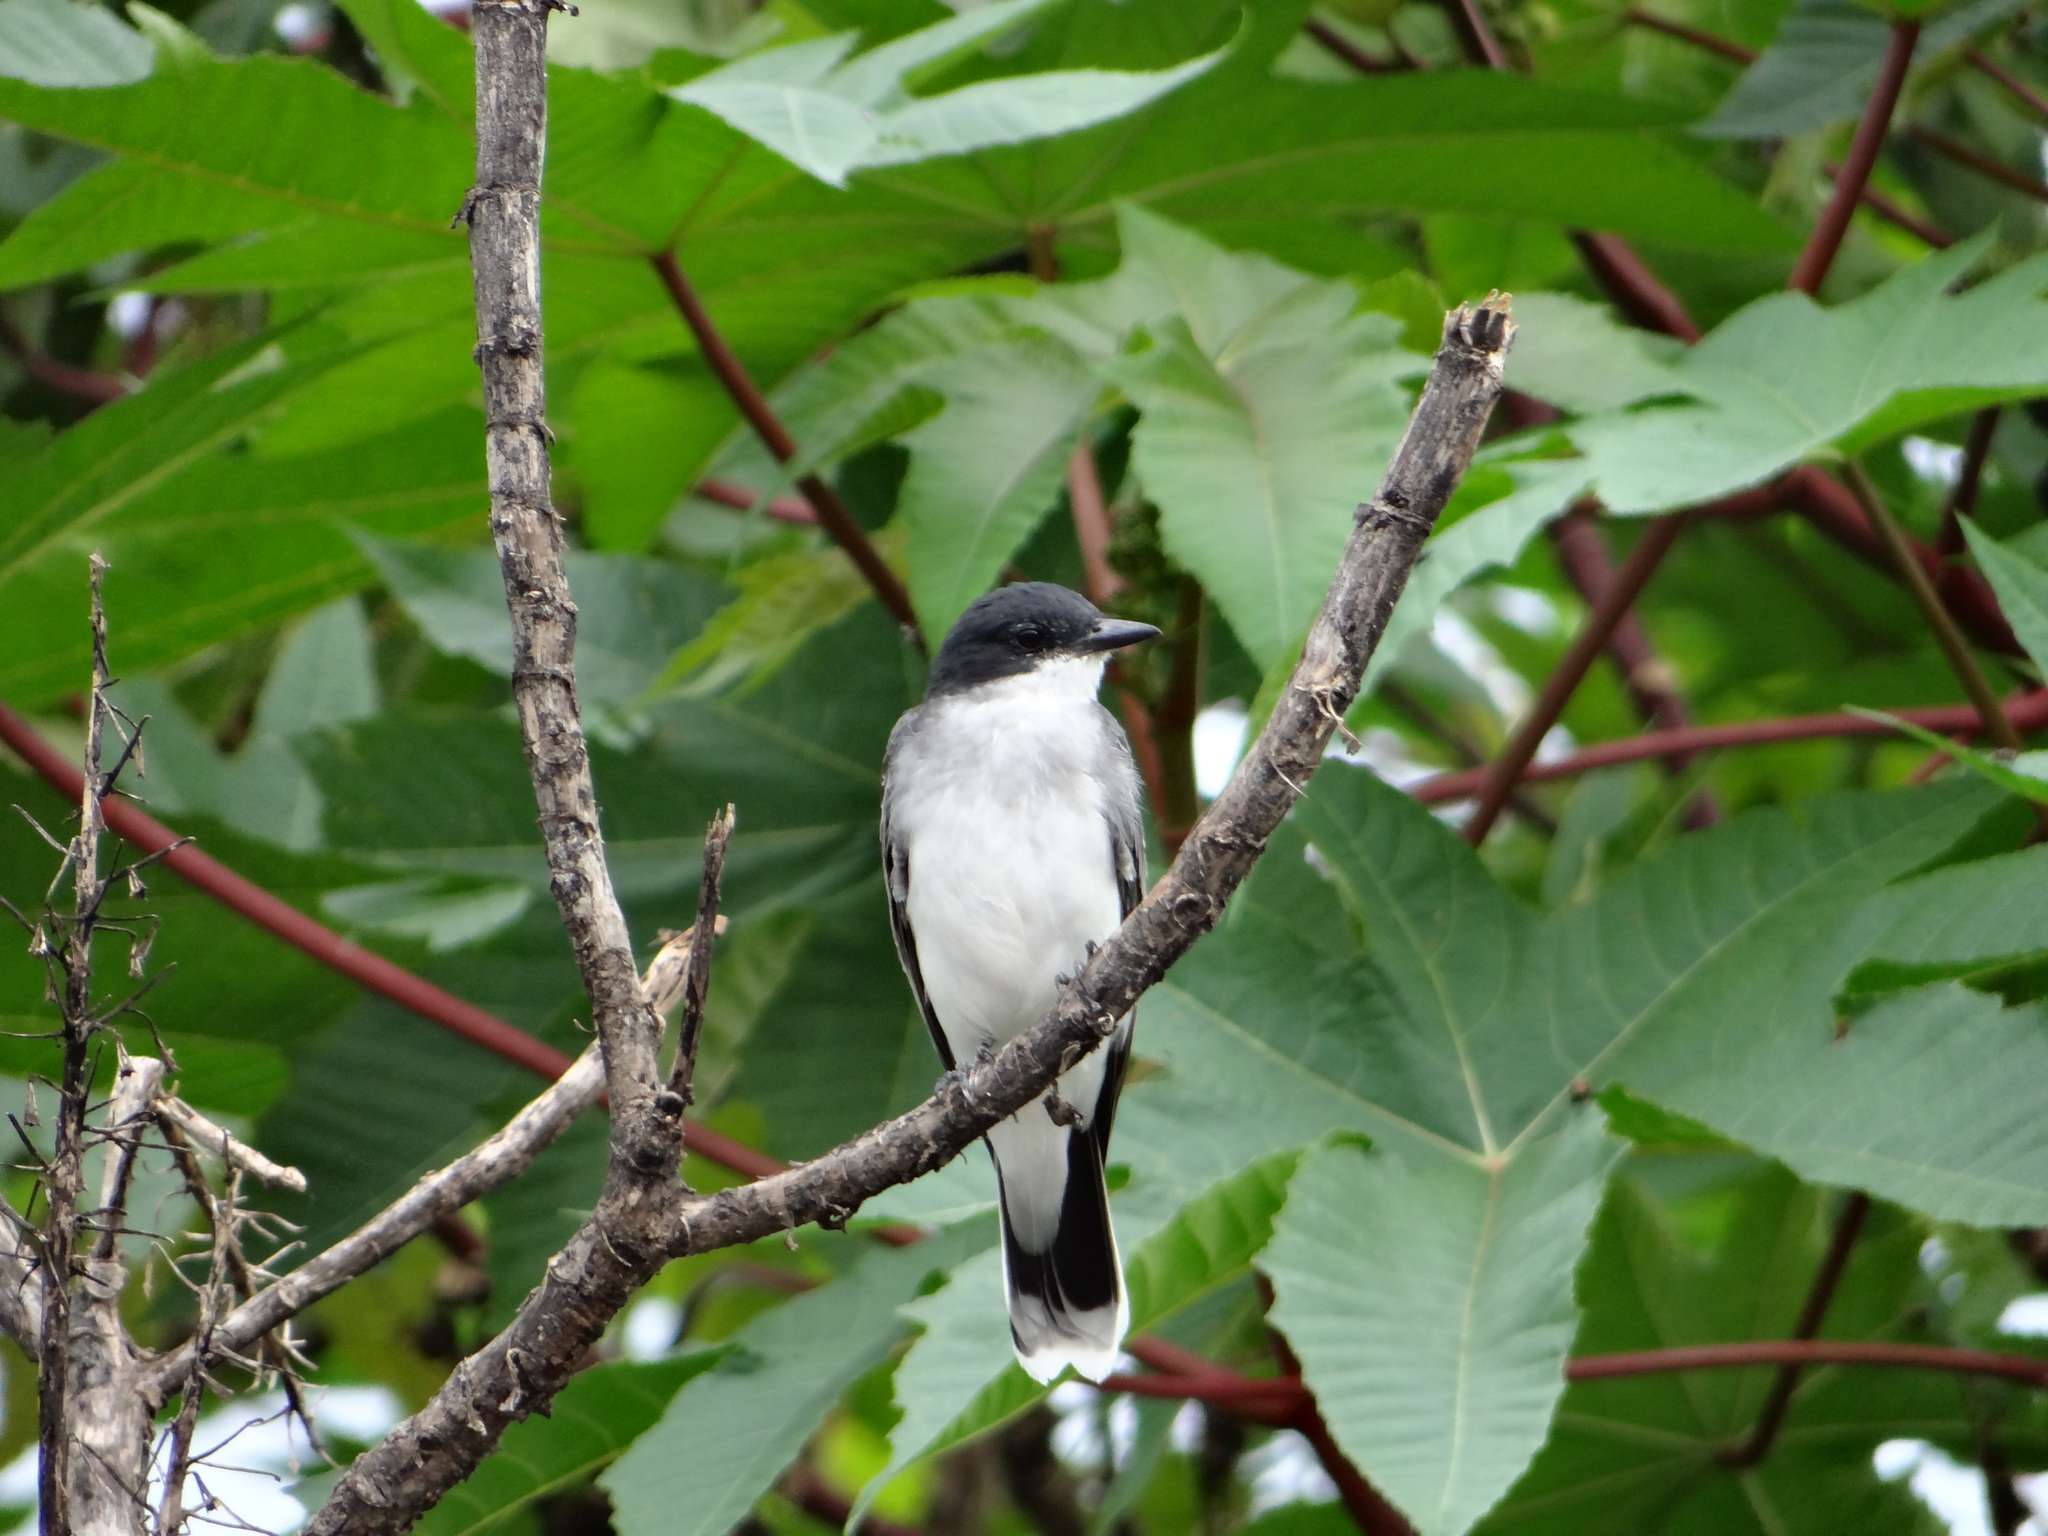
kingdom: Animalia
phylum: Chordata
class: Aves
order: Passeriformes
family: Tyrannidae
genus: Tyrannus
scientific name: Tyrannus tyrannus
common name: Eastern kingbird
